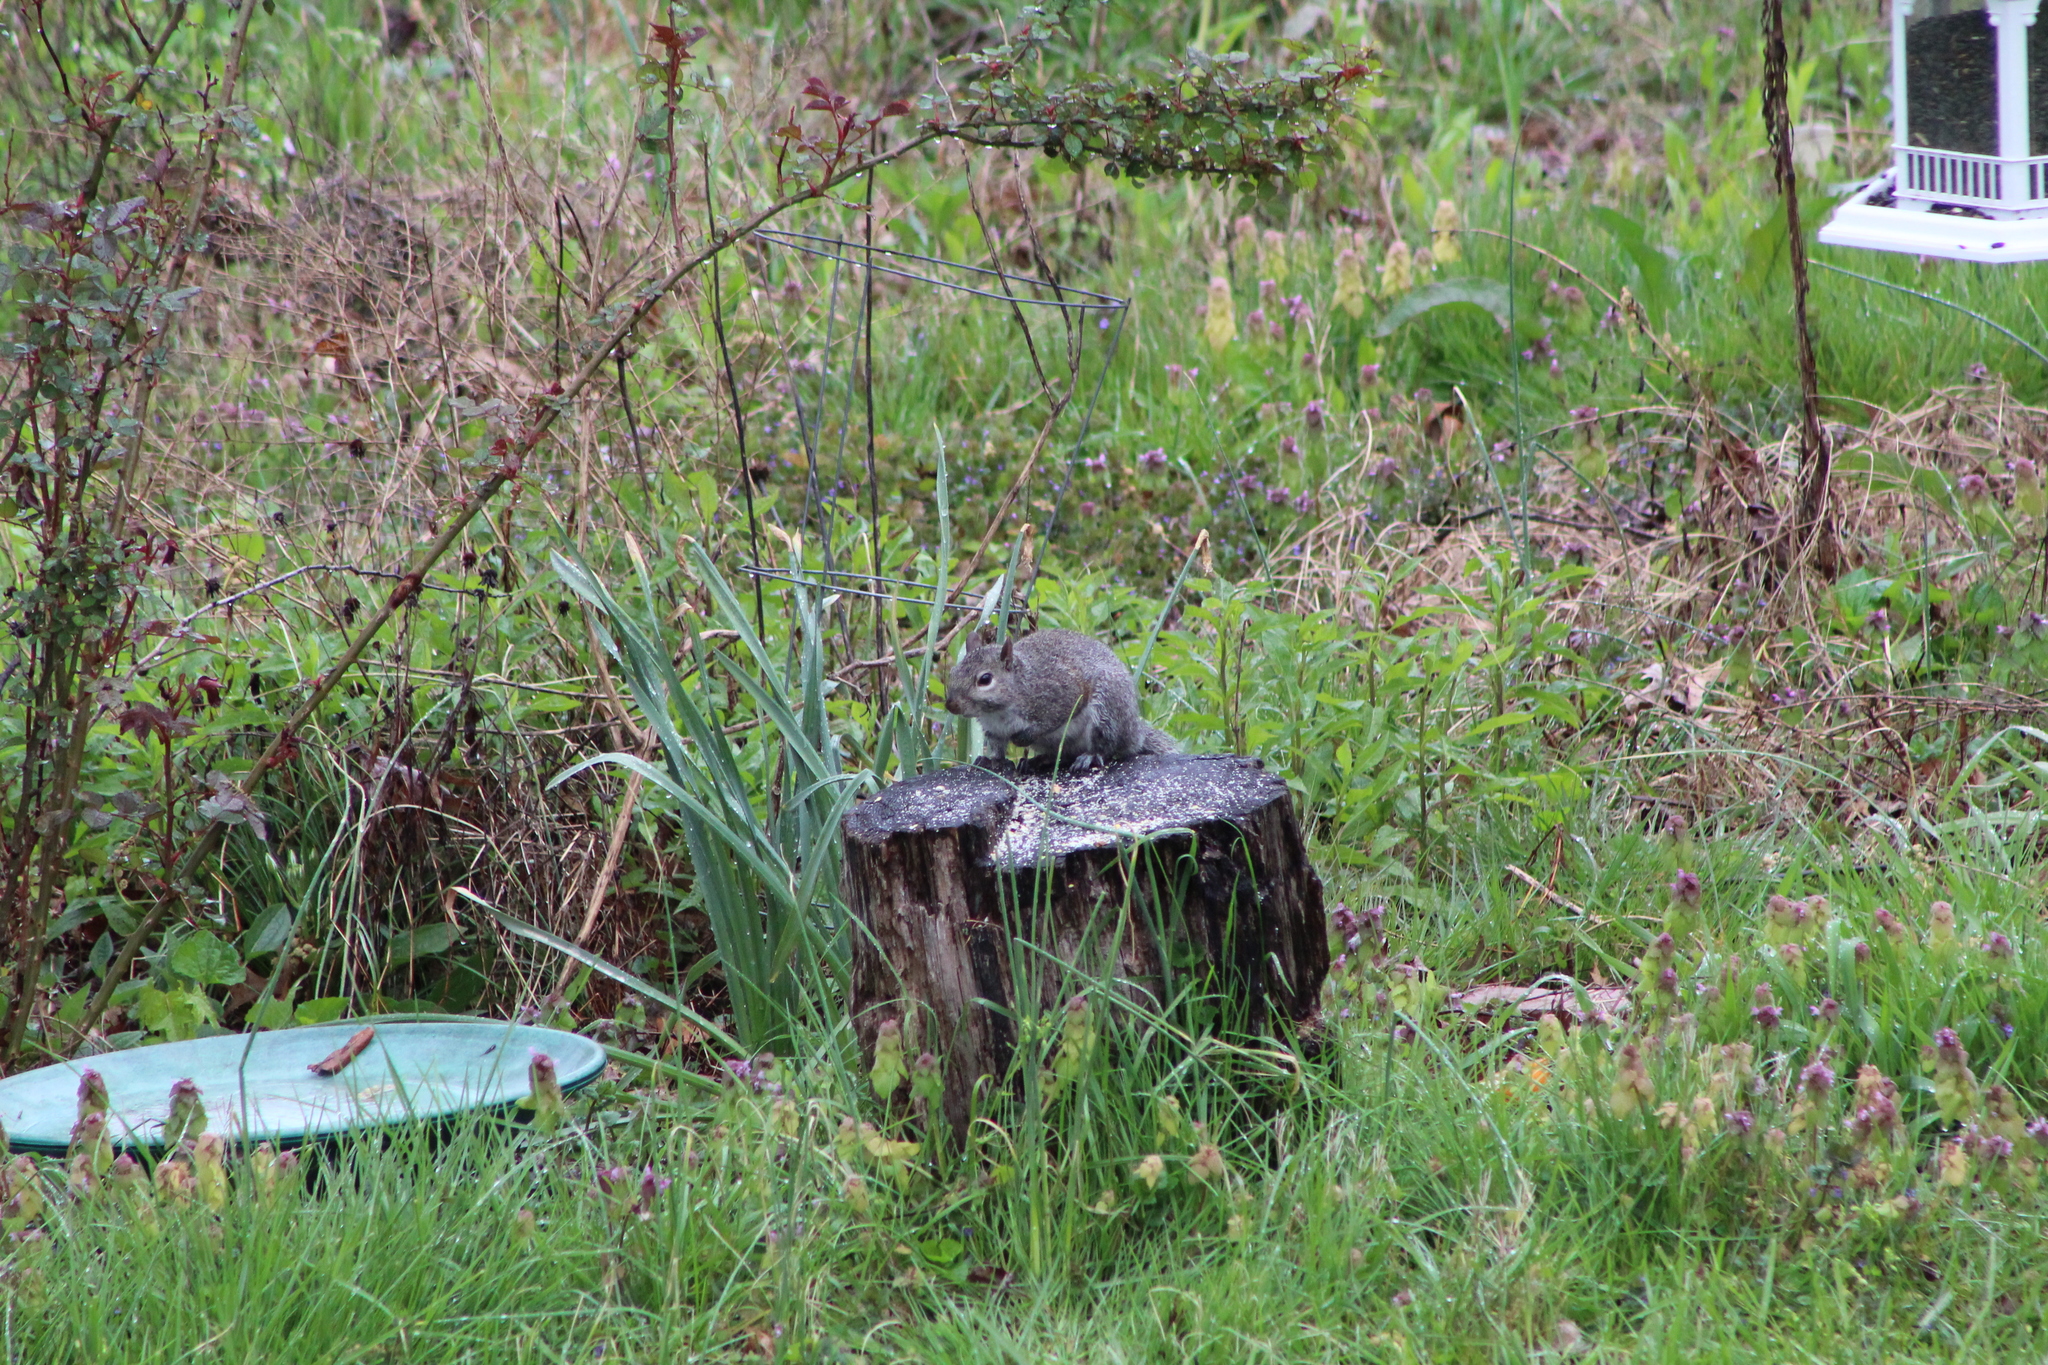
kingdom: Animalia
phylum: Chordata
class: Mammalia
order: Rodentia
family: Sciuridae
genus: Sciurus
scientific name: Sciurus carolinensis
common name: Eastern gray squirrel
